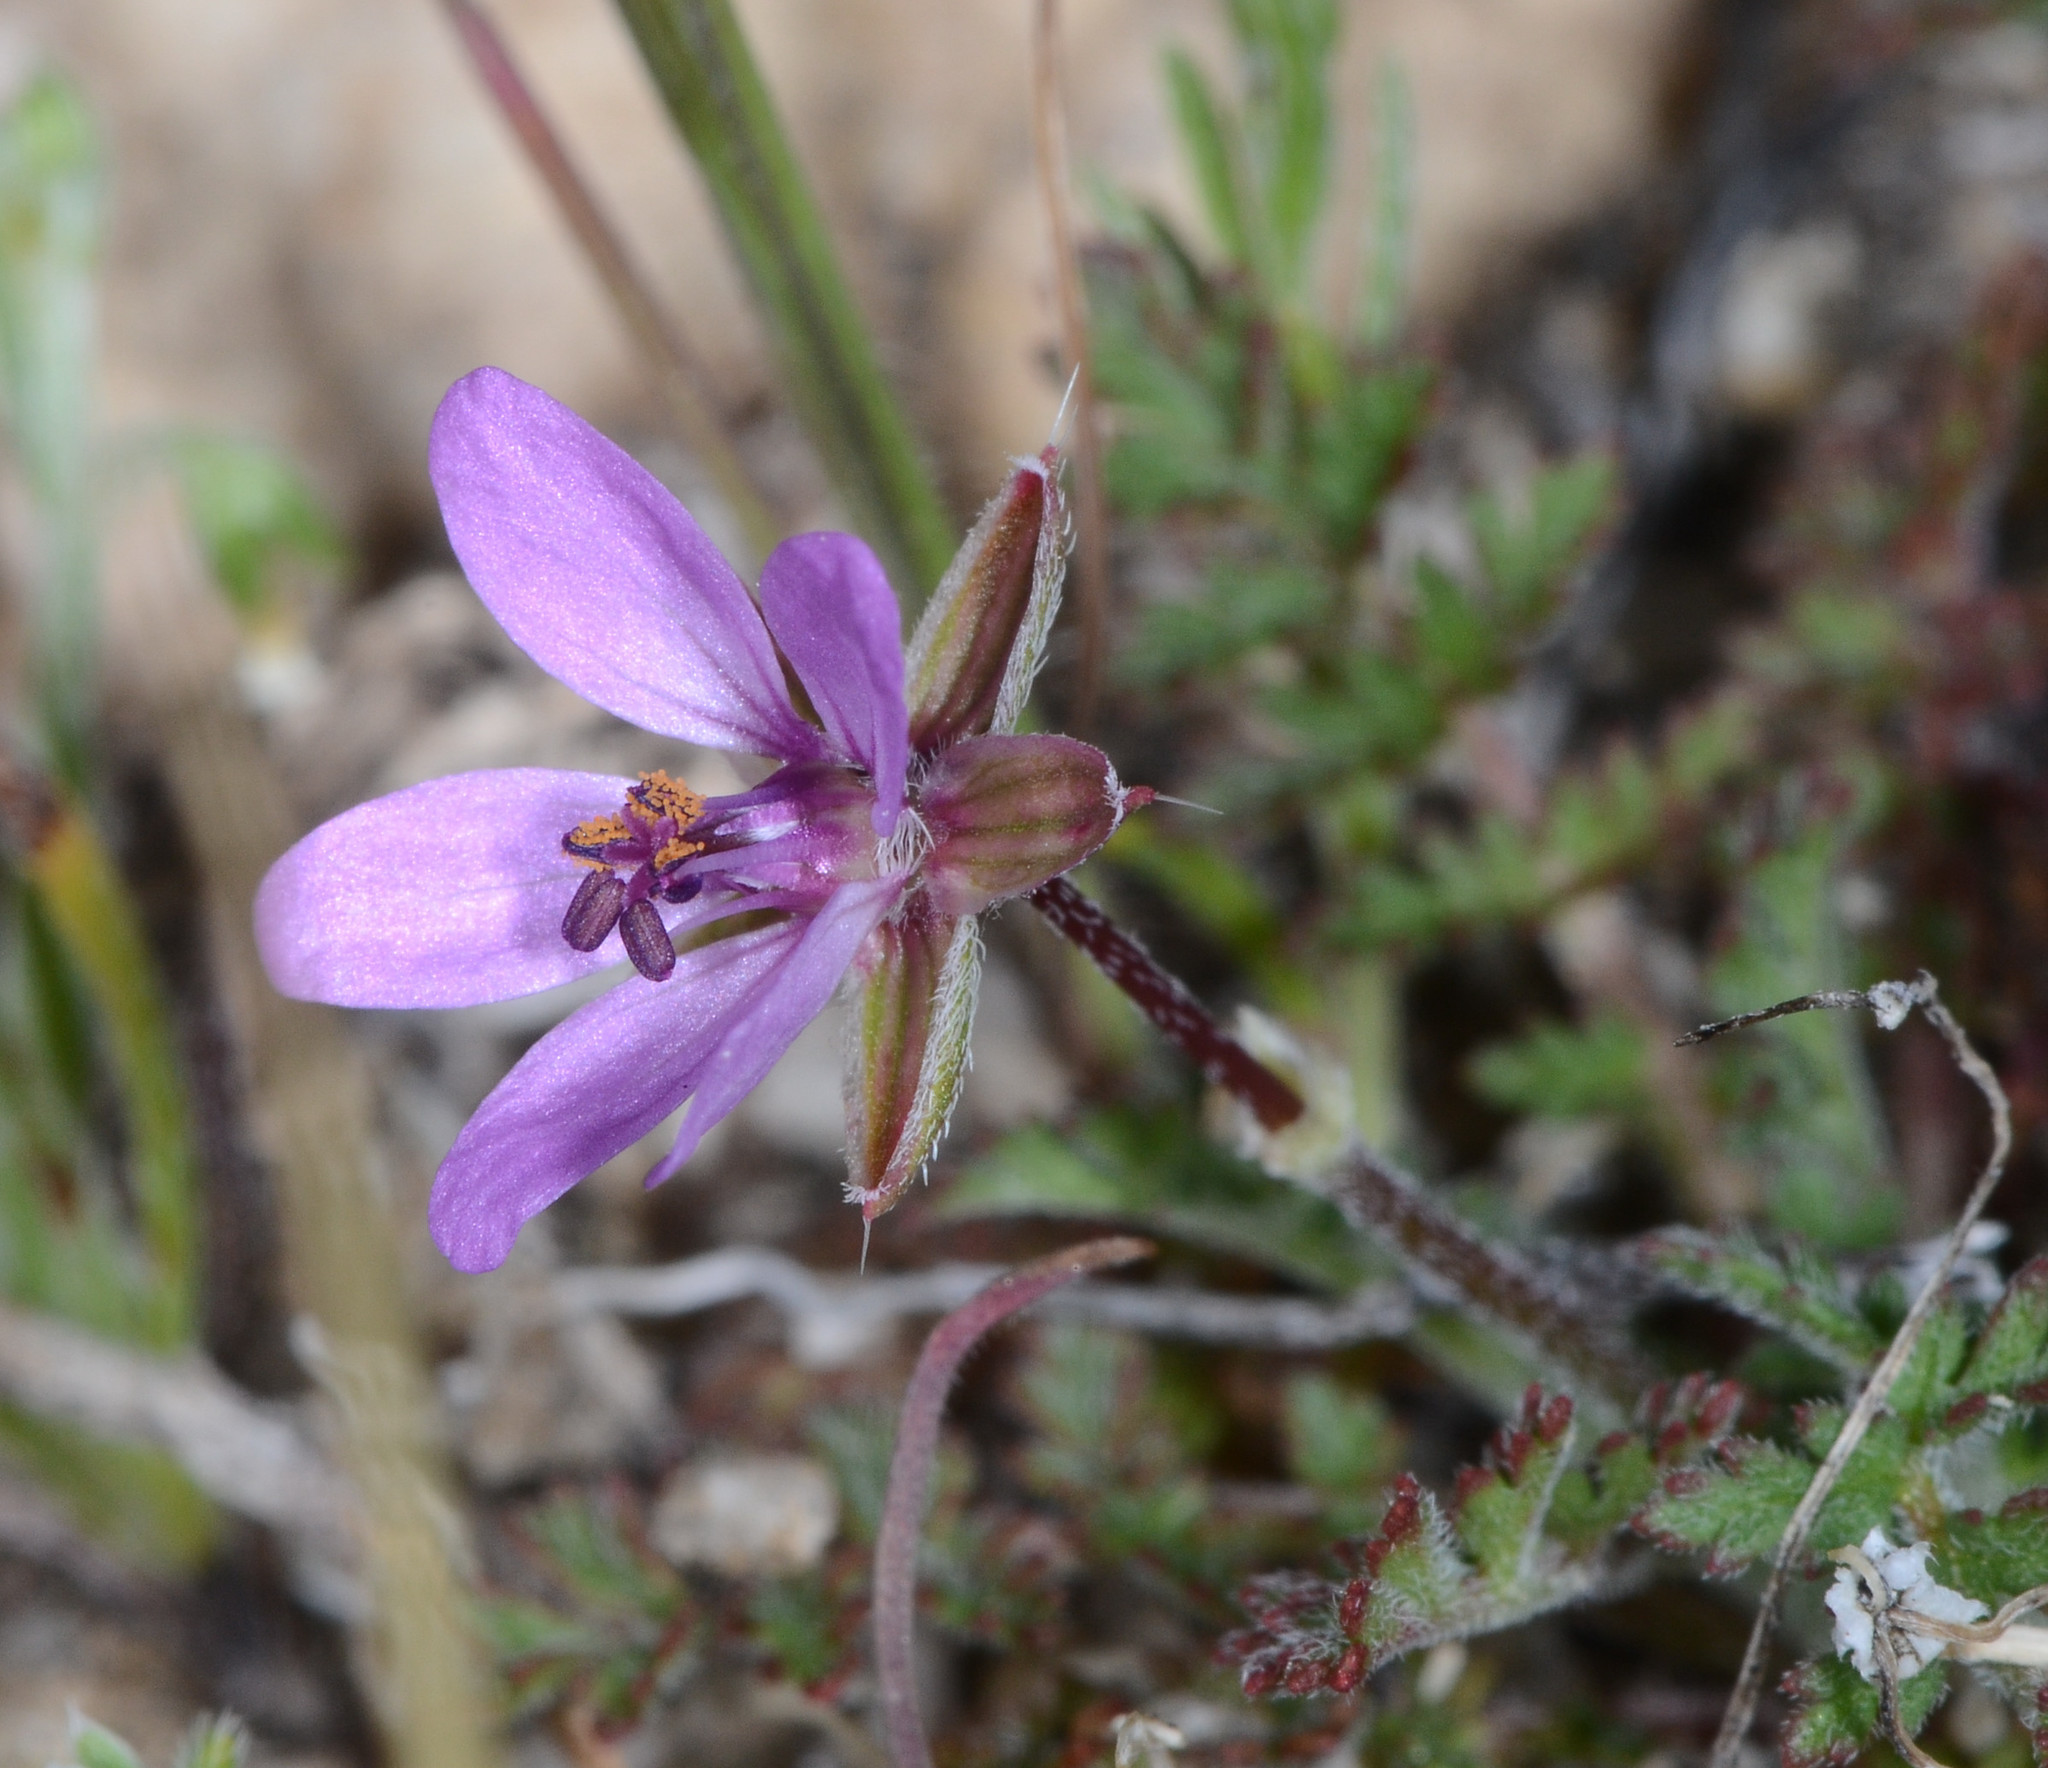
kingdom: Plantae
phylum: Tracheophyta
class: Magnoliopsida
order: Geraniales
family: Geraniaceae
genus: Erodium
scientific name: Erodium cicutarium
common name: Common stork's-bill
